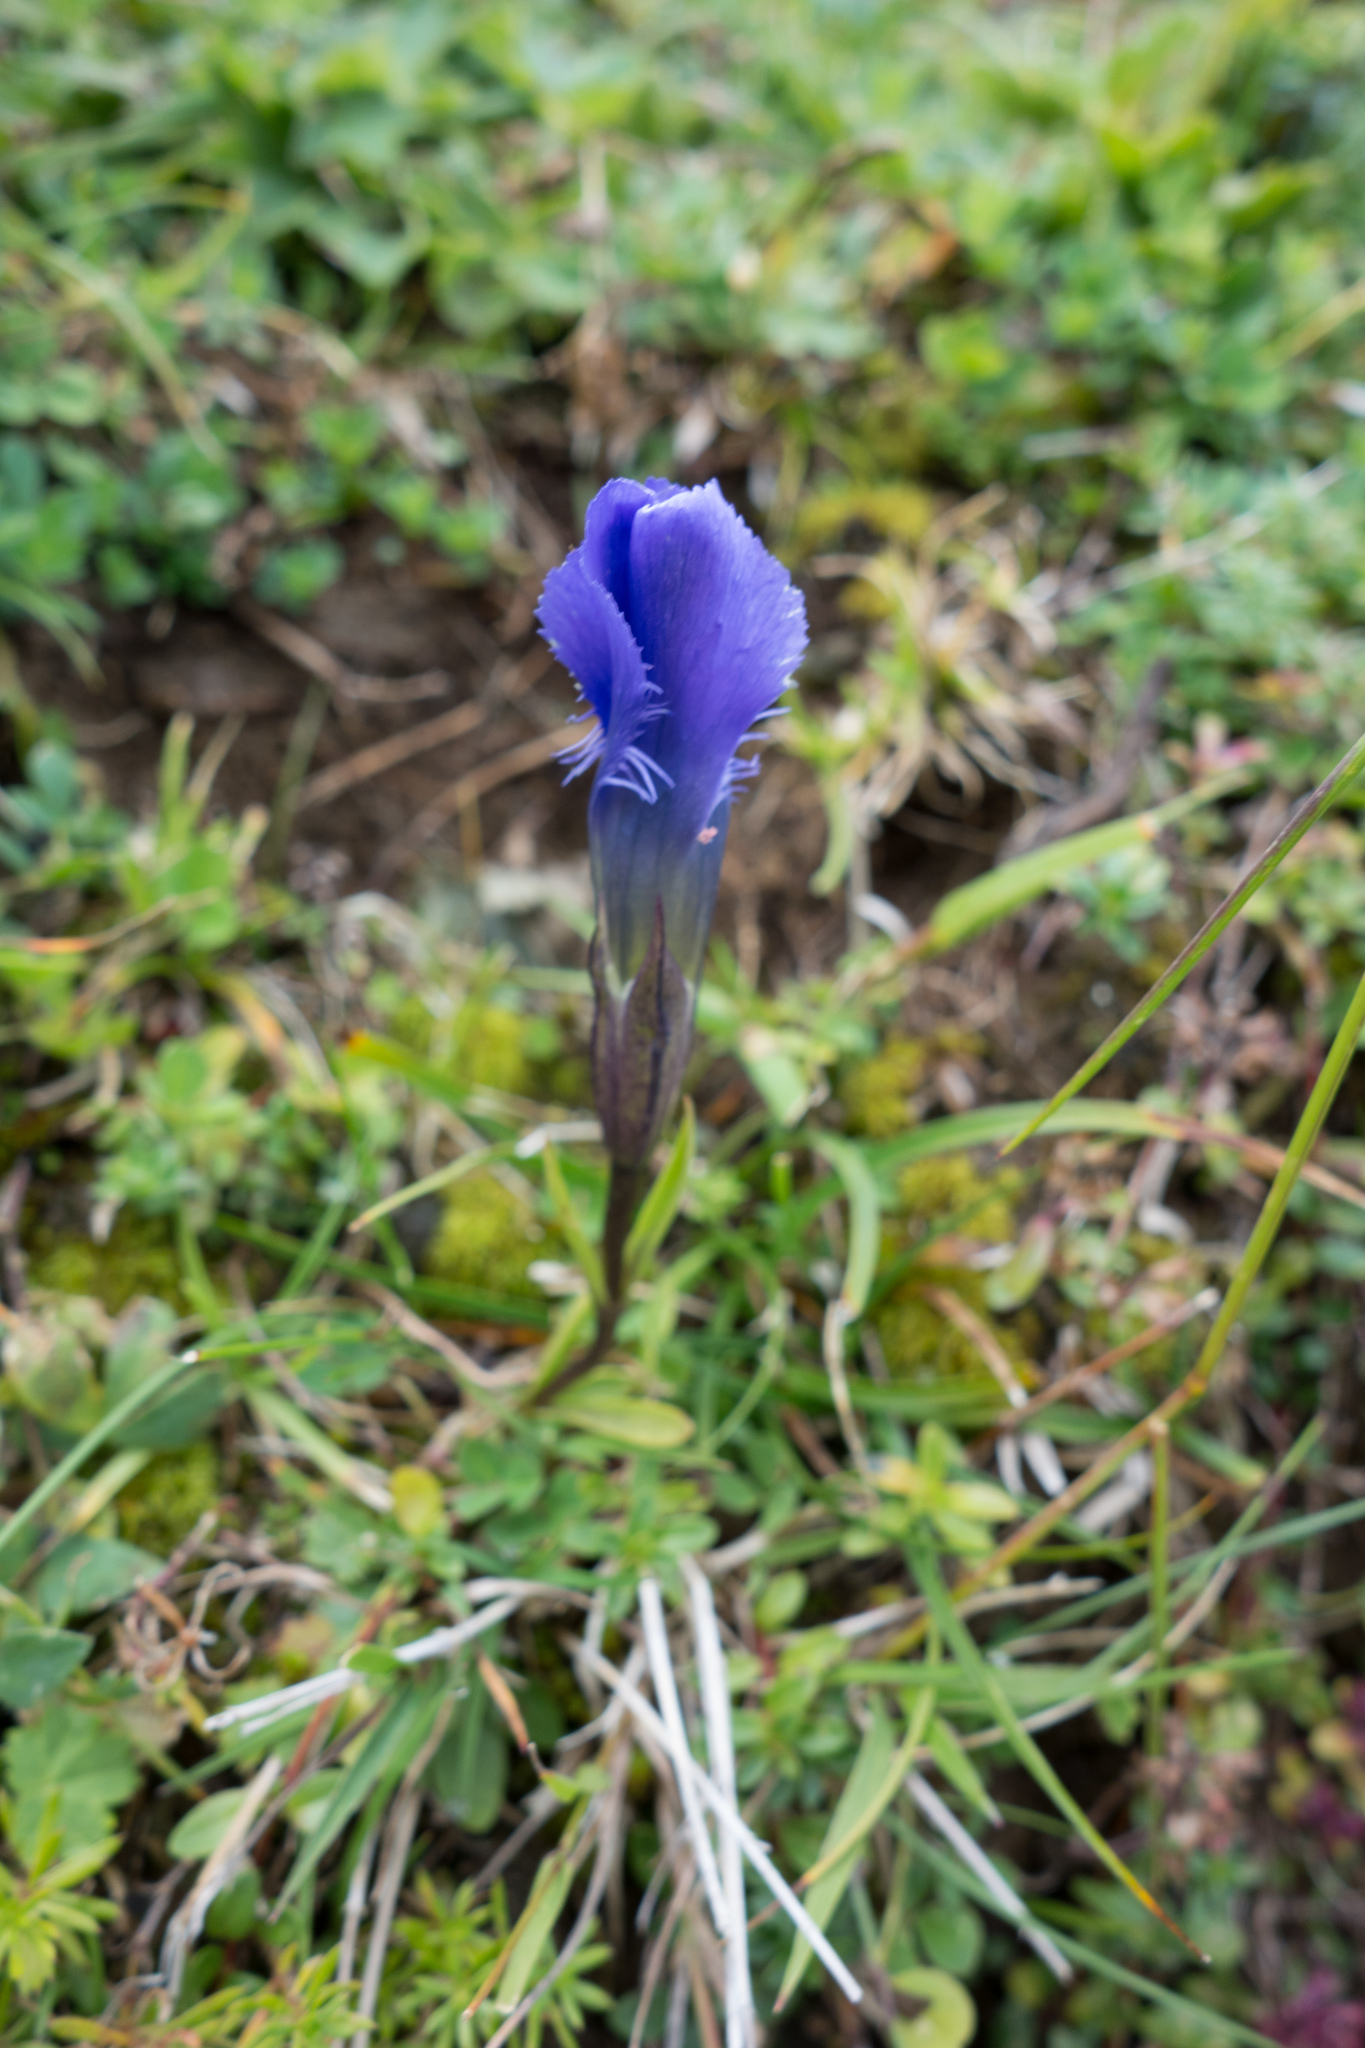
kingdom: Plantae
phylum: Tracheophyta
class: Magnoliopsida
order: Gentianales
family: Gentianaceae
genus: Gentianopsis
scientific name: Gentianopsis ciliata
